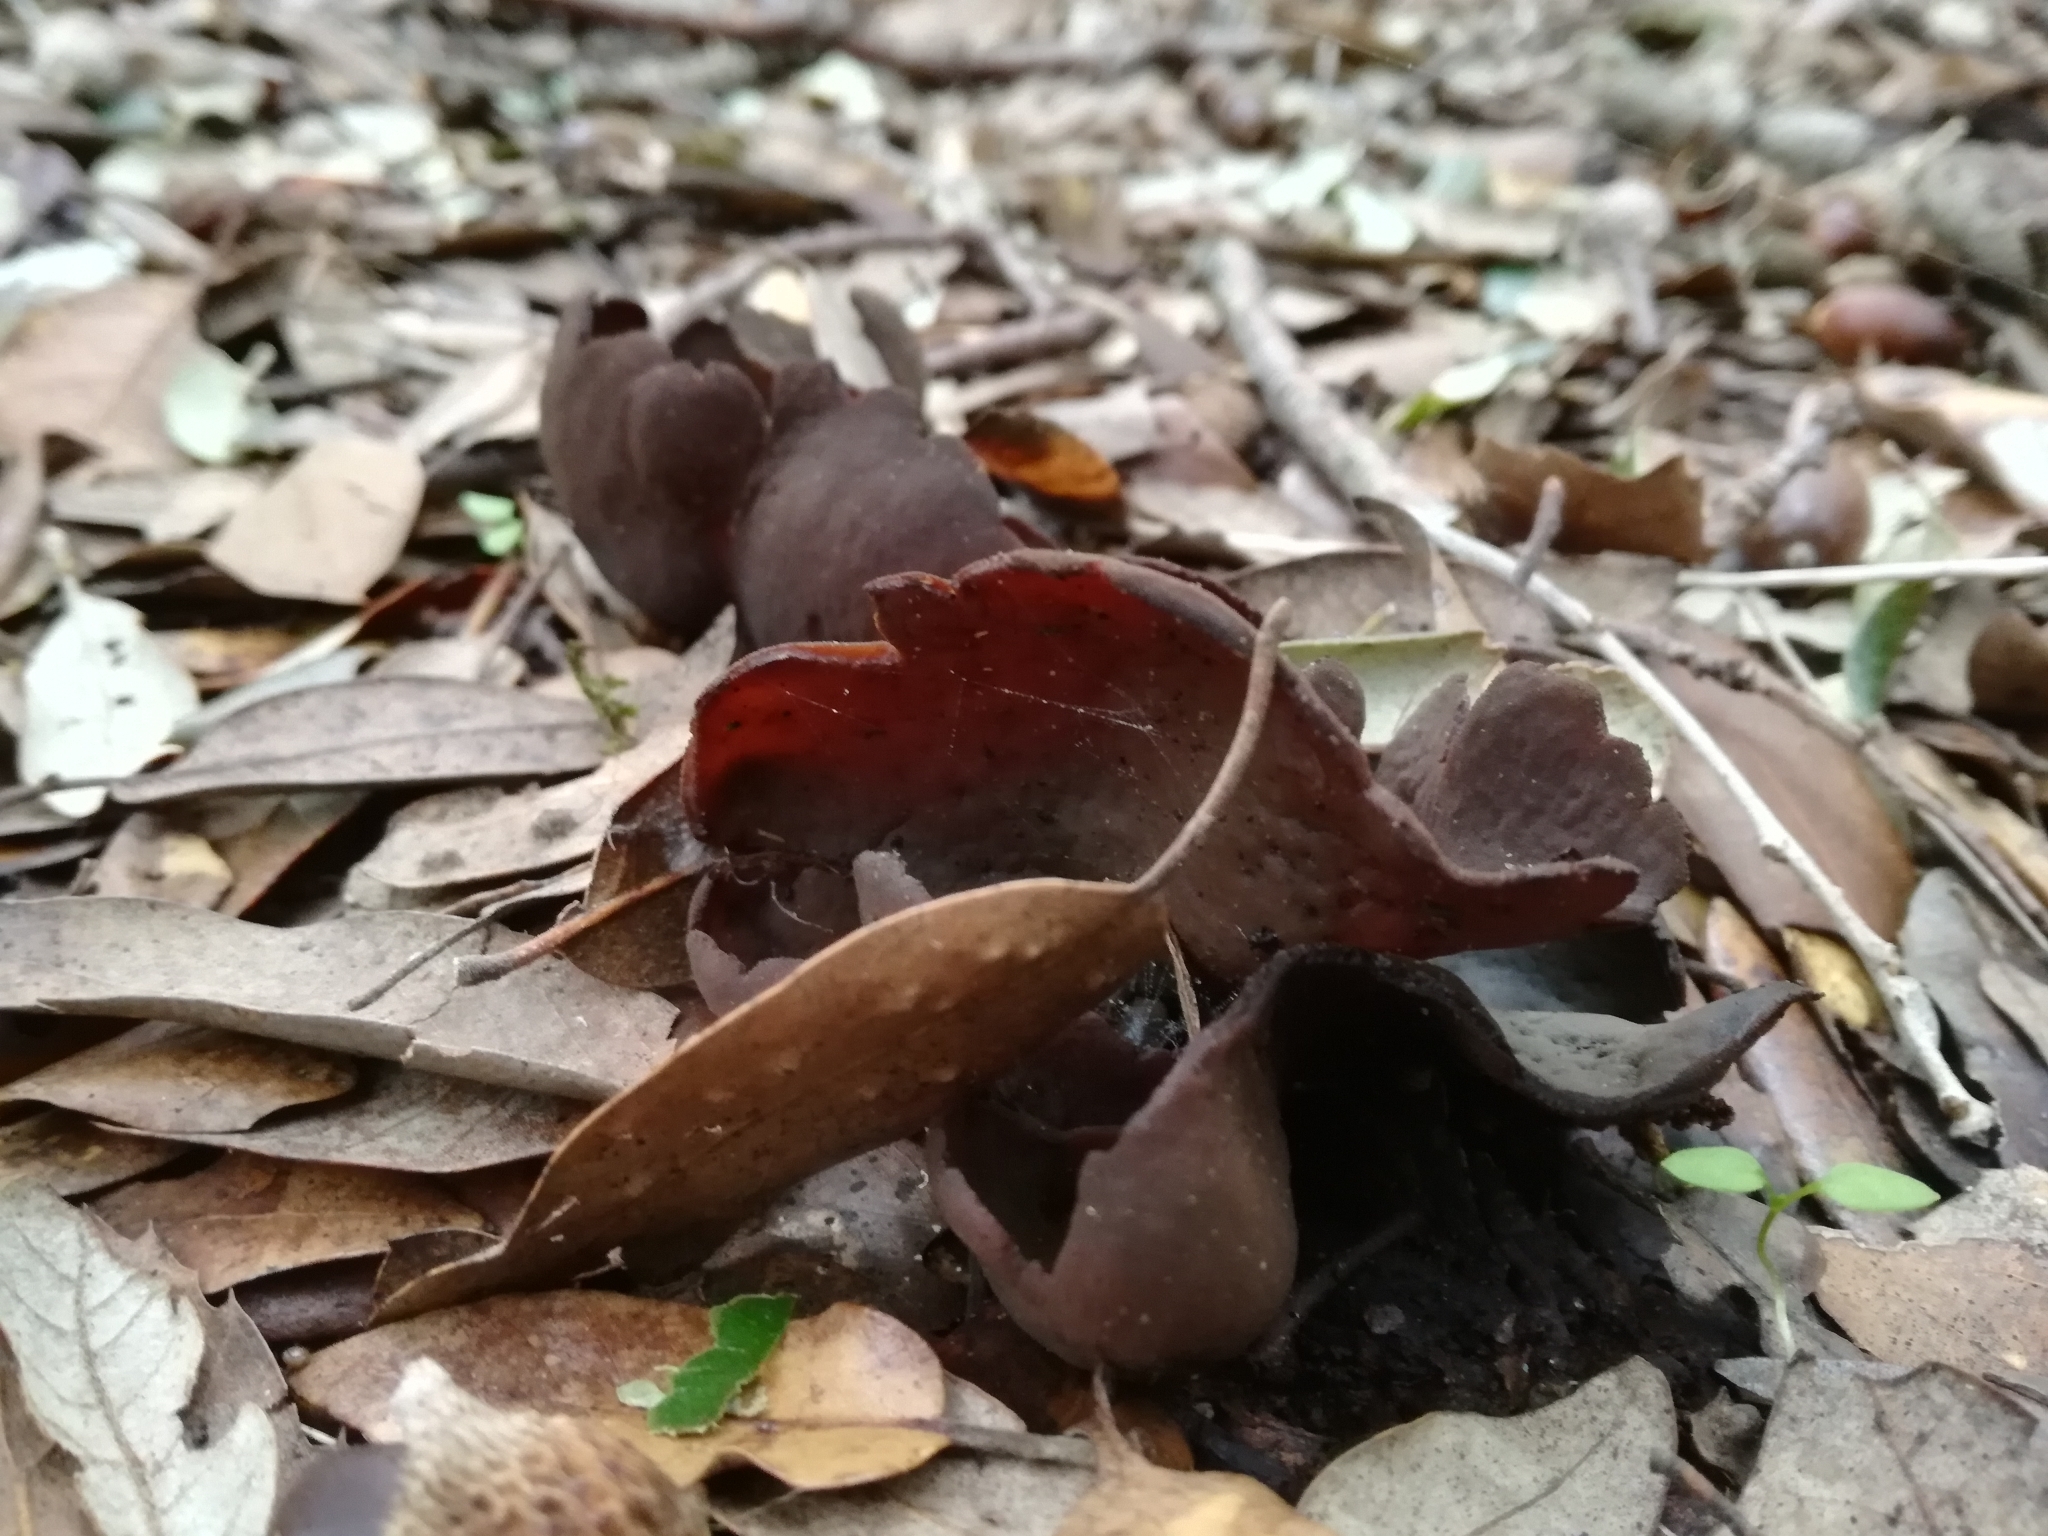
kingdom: Fungi
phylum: Ascomycota
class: Pezizomycetes
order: Pezizales
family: Otideaceae
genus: Otidea
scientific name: Otidea bufonia
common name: Toad's ear
